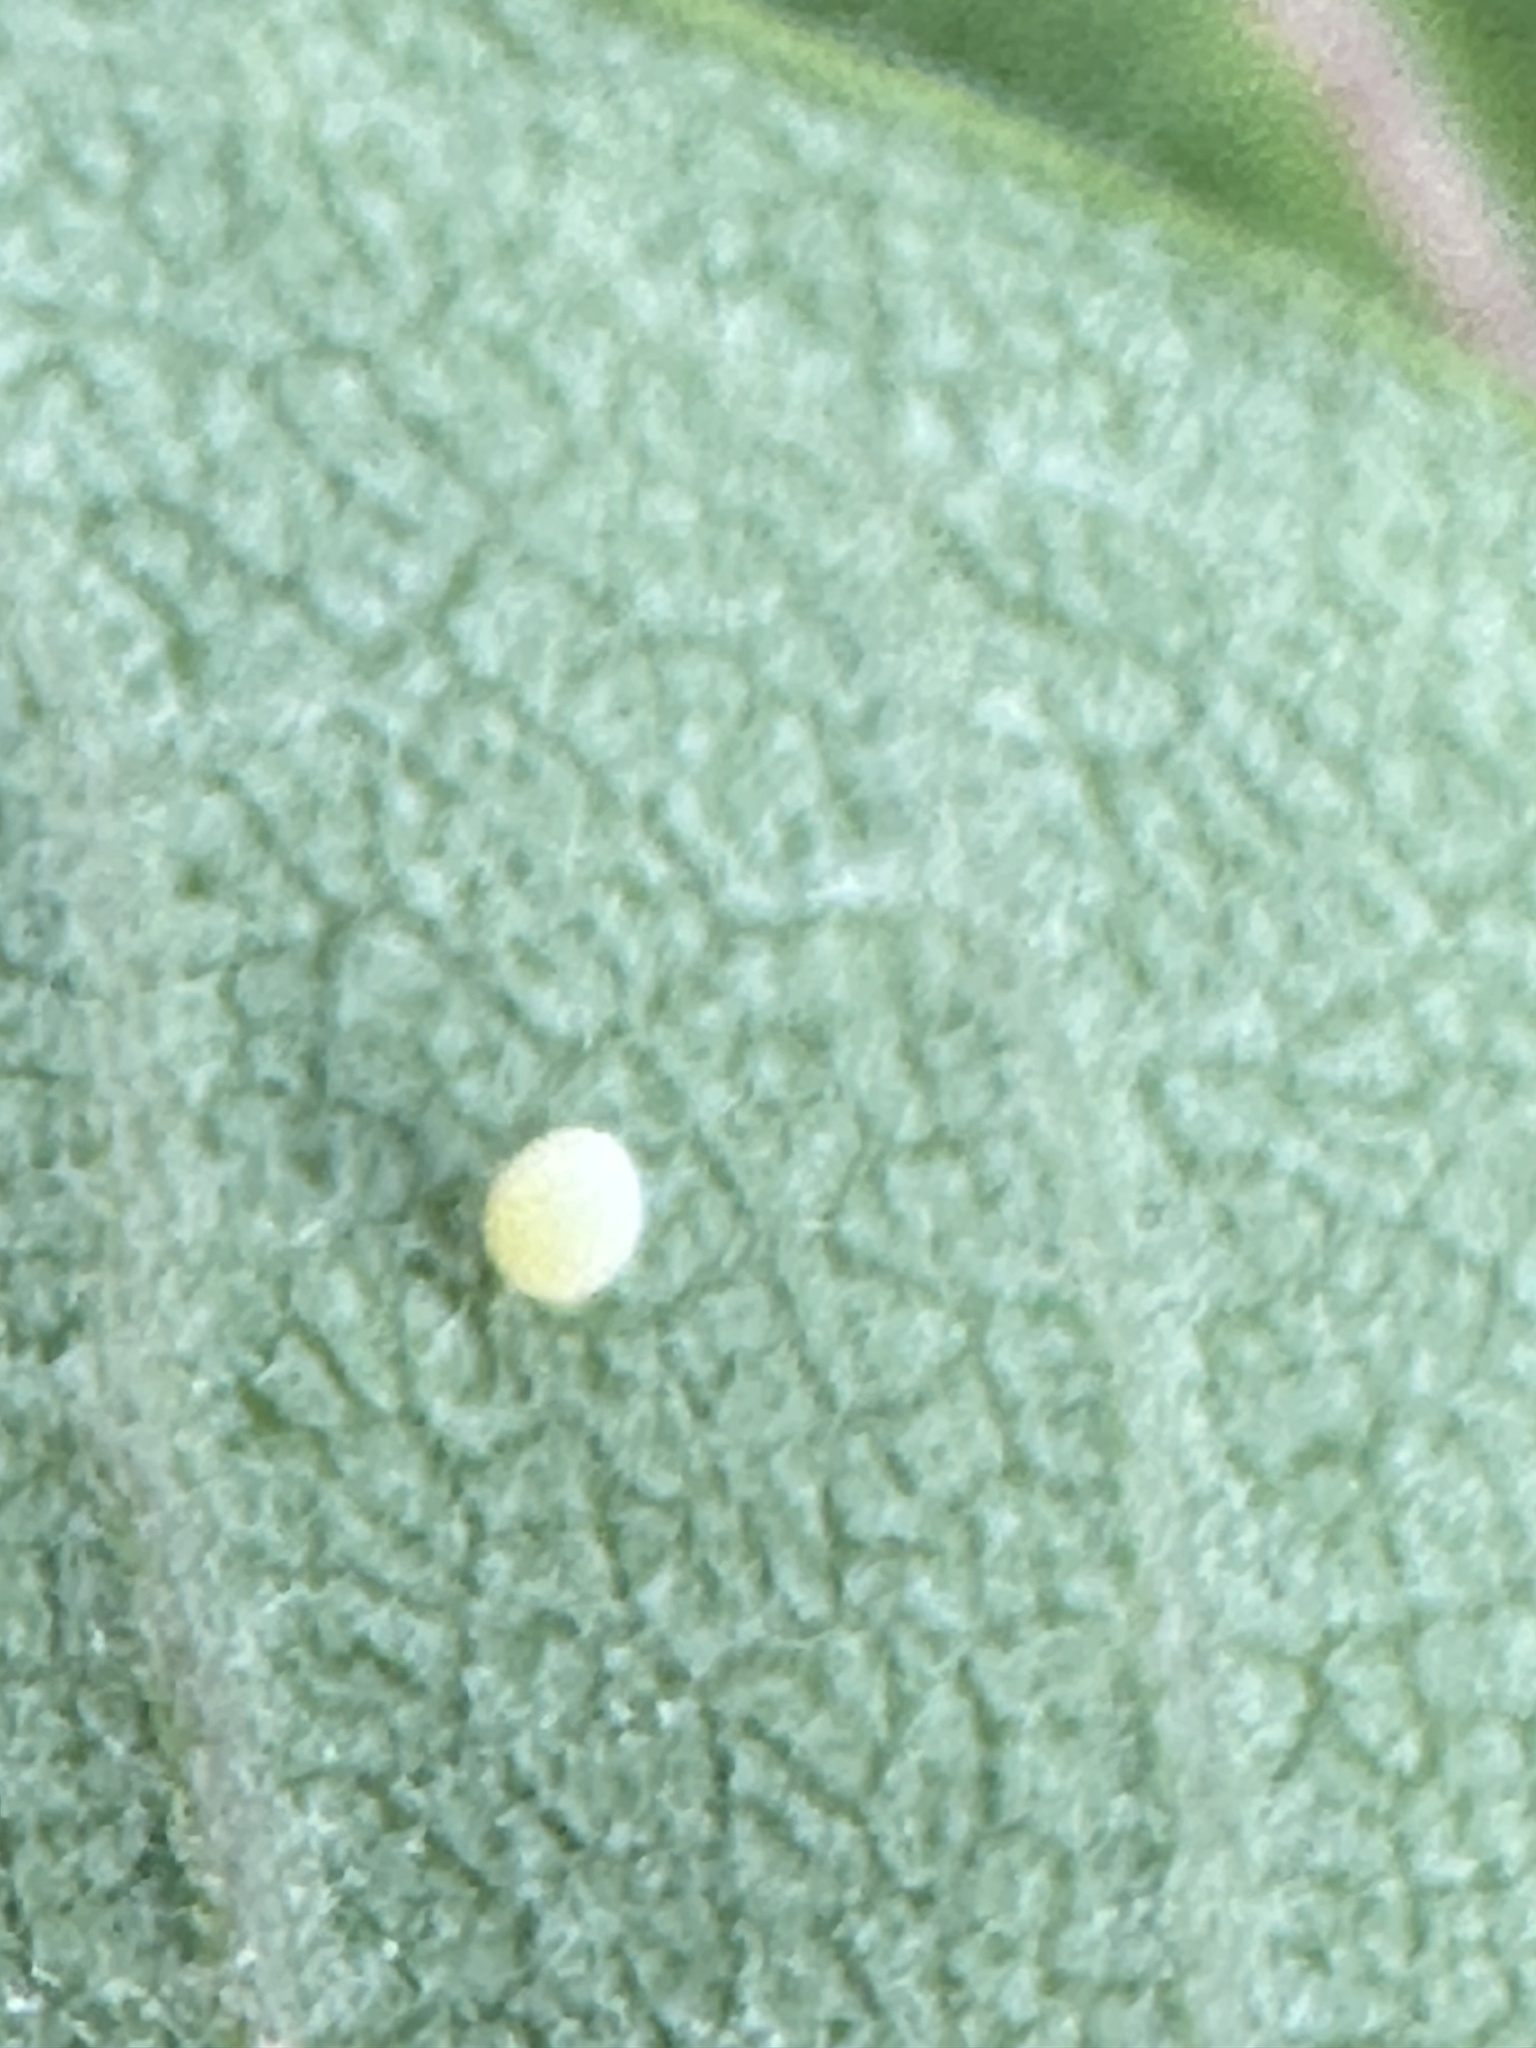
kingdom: Animalia
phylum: Arthropoda
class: Insecta
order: Lepidoptera
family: Nymphalidae
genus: Danaus
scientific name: Danaus plexippus
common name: Monarch
